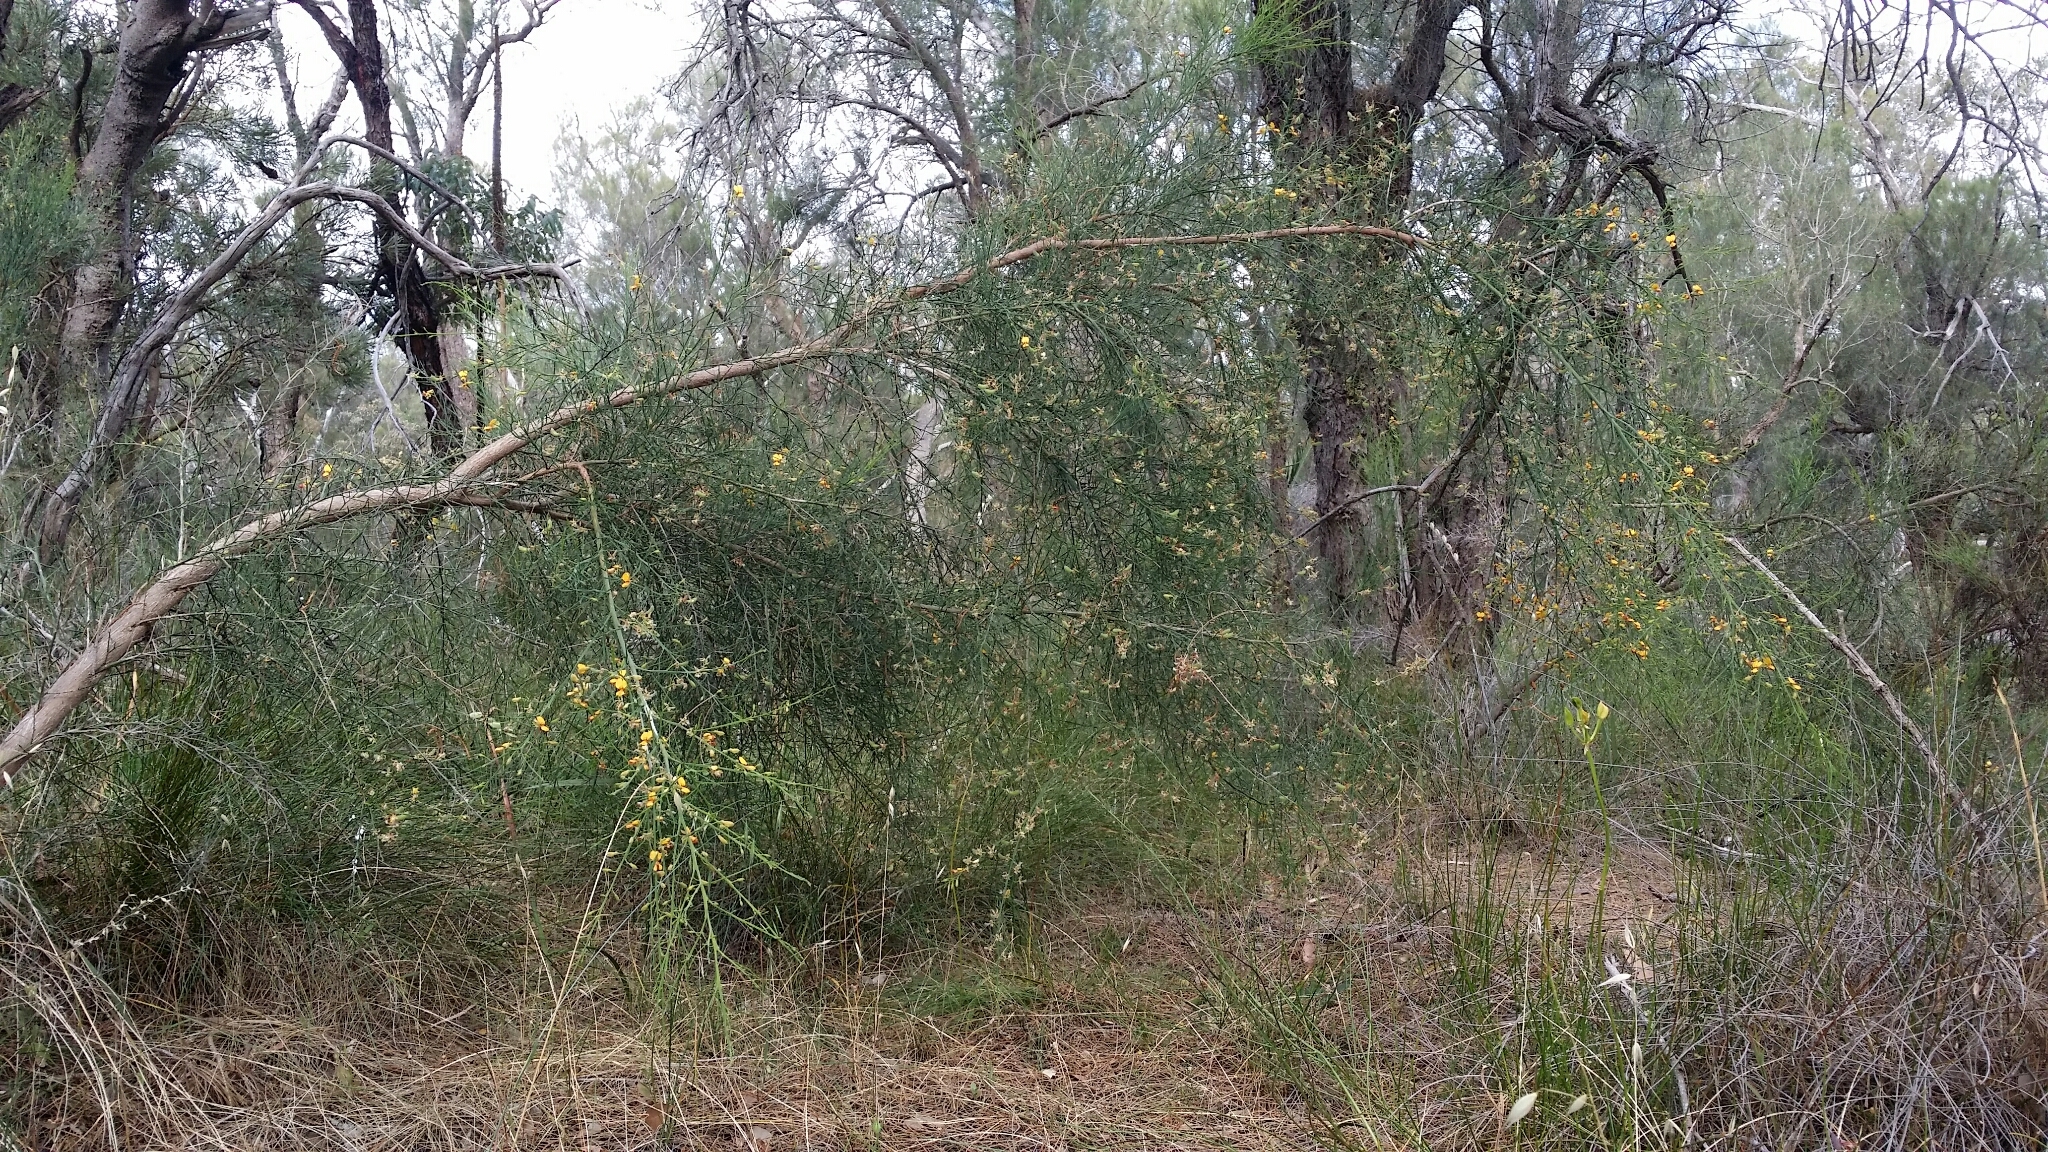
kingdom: Plantae
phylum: Tracheophyta
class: Magnoliopsida
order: Fabales
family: Fabaceae
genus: Jacksonia
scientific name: Jacksonia sternbergiana
